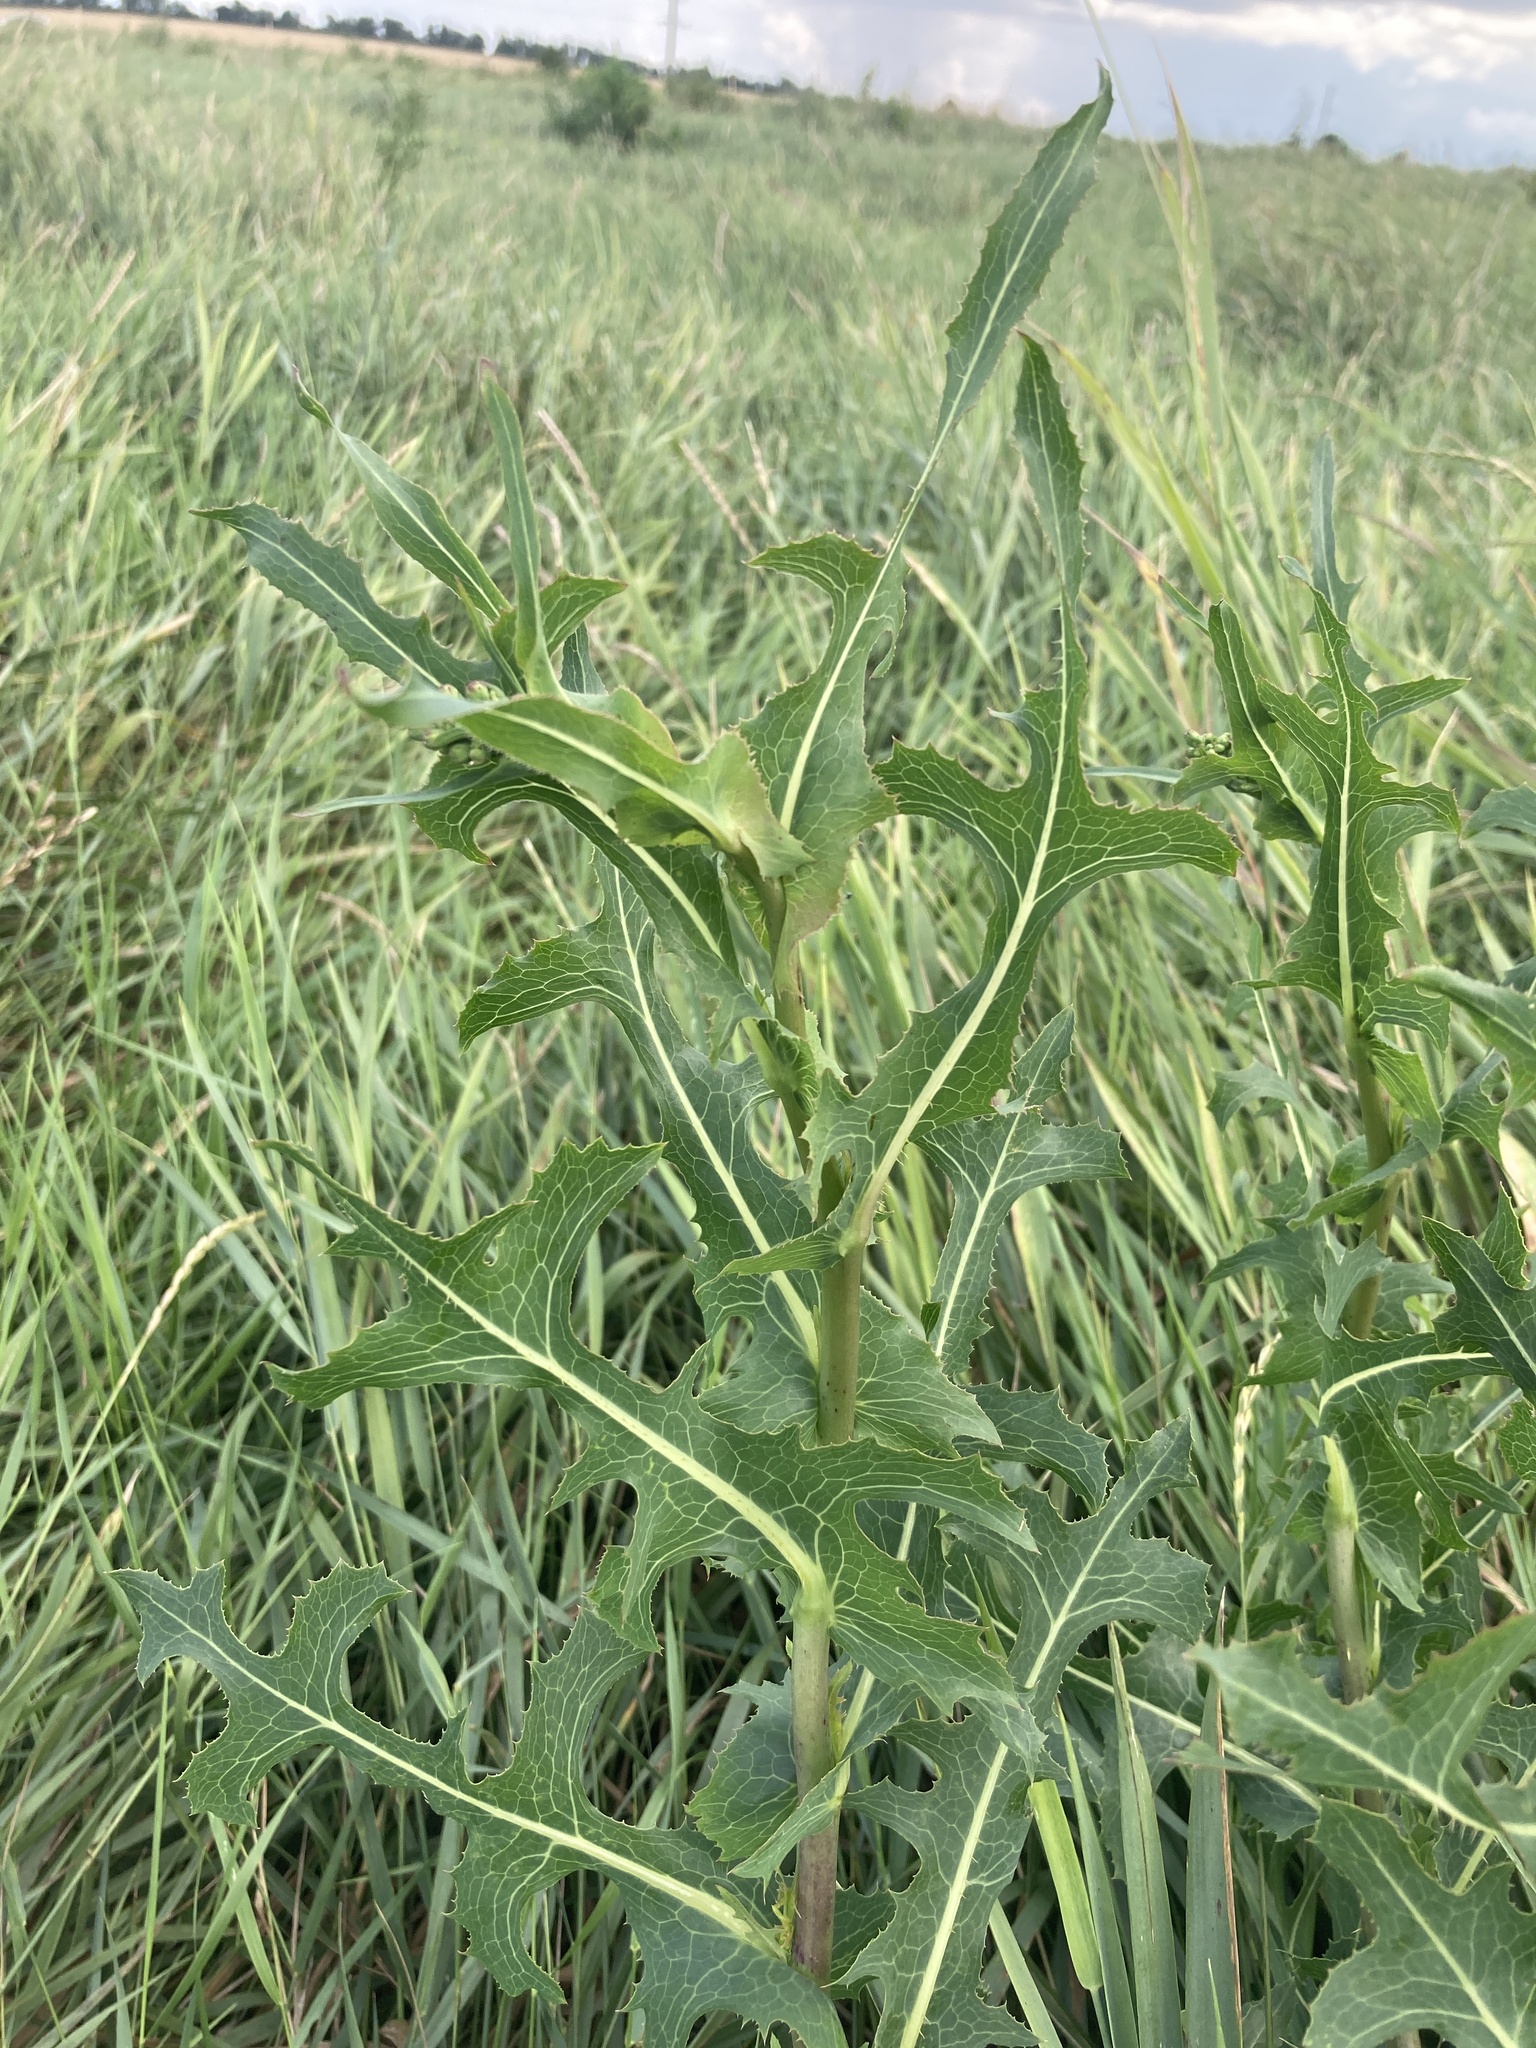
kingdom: Plantae
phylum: Tracheophyta
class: Magnoliopsida
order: Asterales
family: Asteraceae
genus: Lactuca
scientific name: Lactuca serriola
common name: Prickly lettuce
